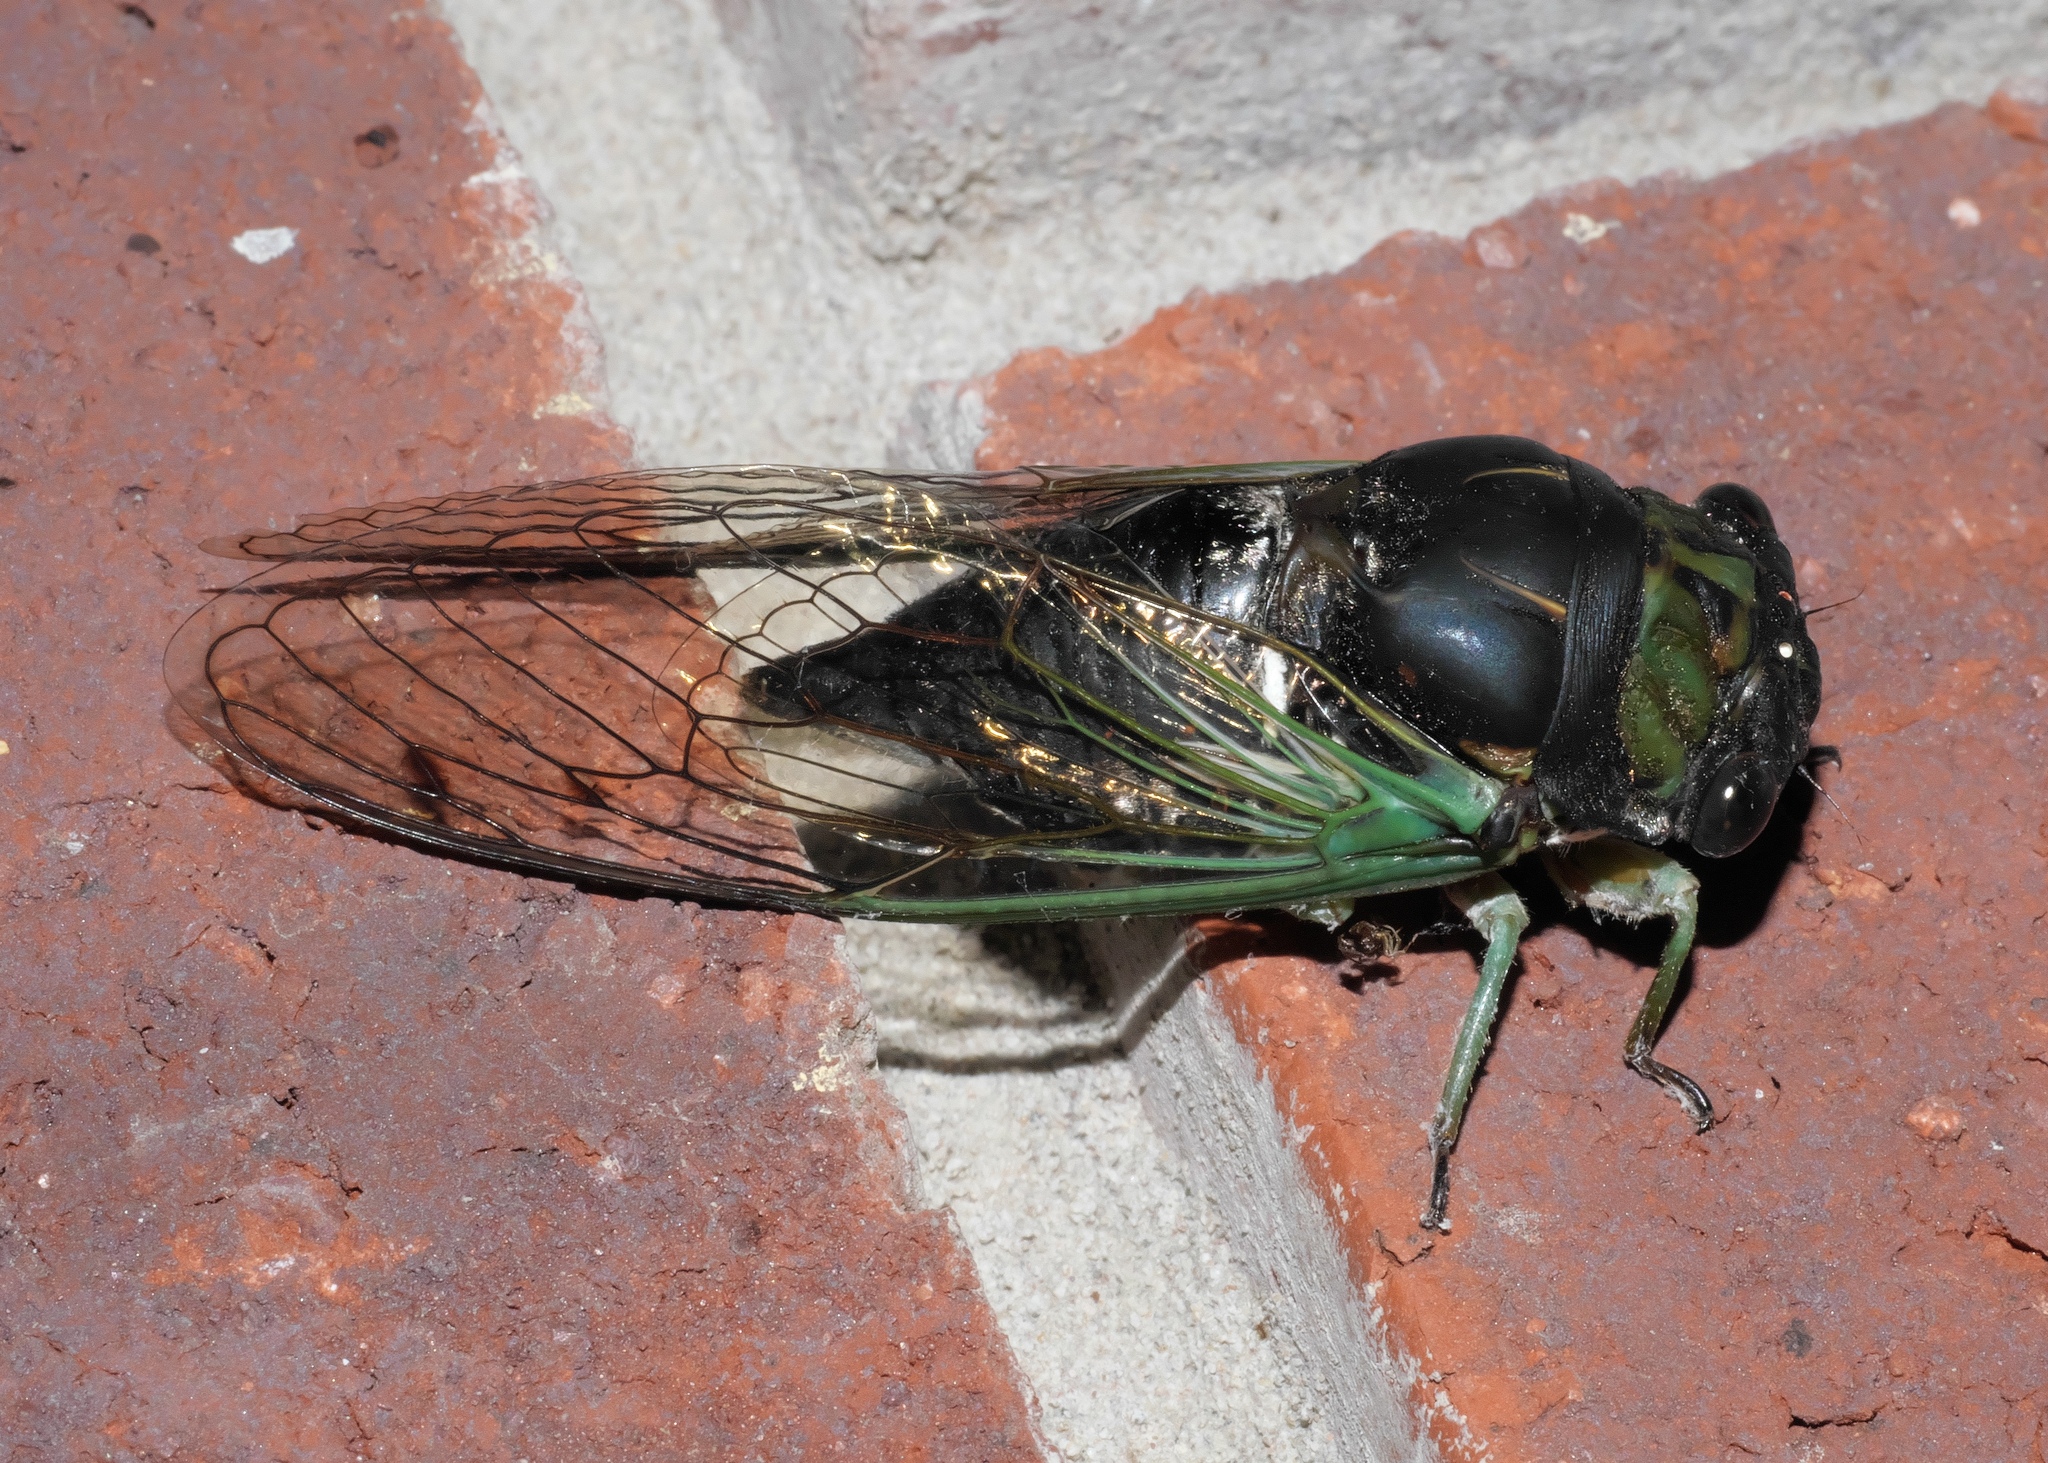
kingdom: Animalia
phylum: Arthropoda
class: Insecta
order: Hemiptera
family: Cicadidae
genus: Neotibicen
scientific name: Neotibicen tibicen
